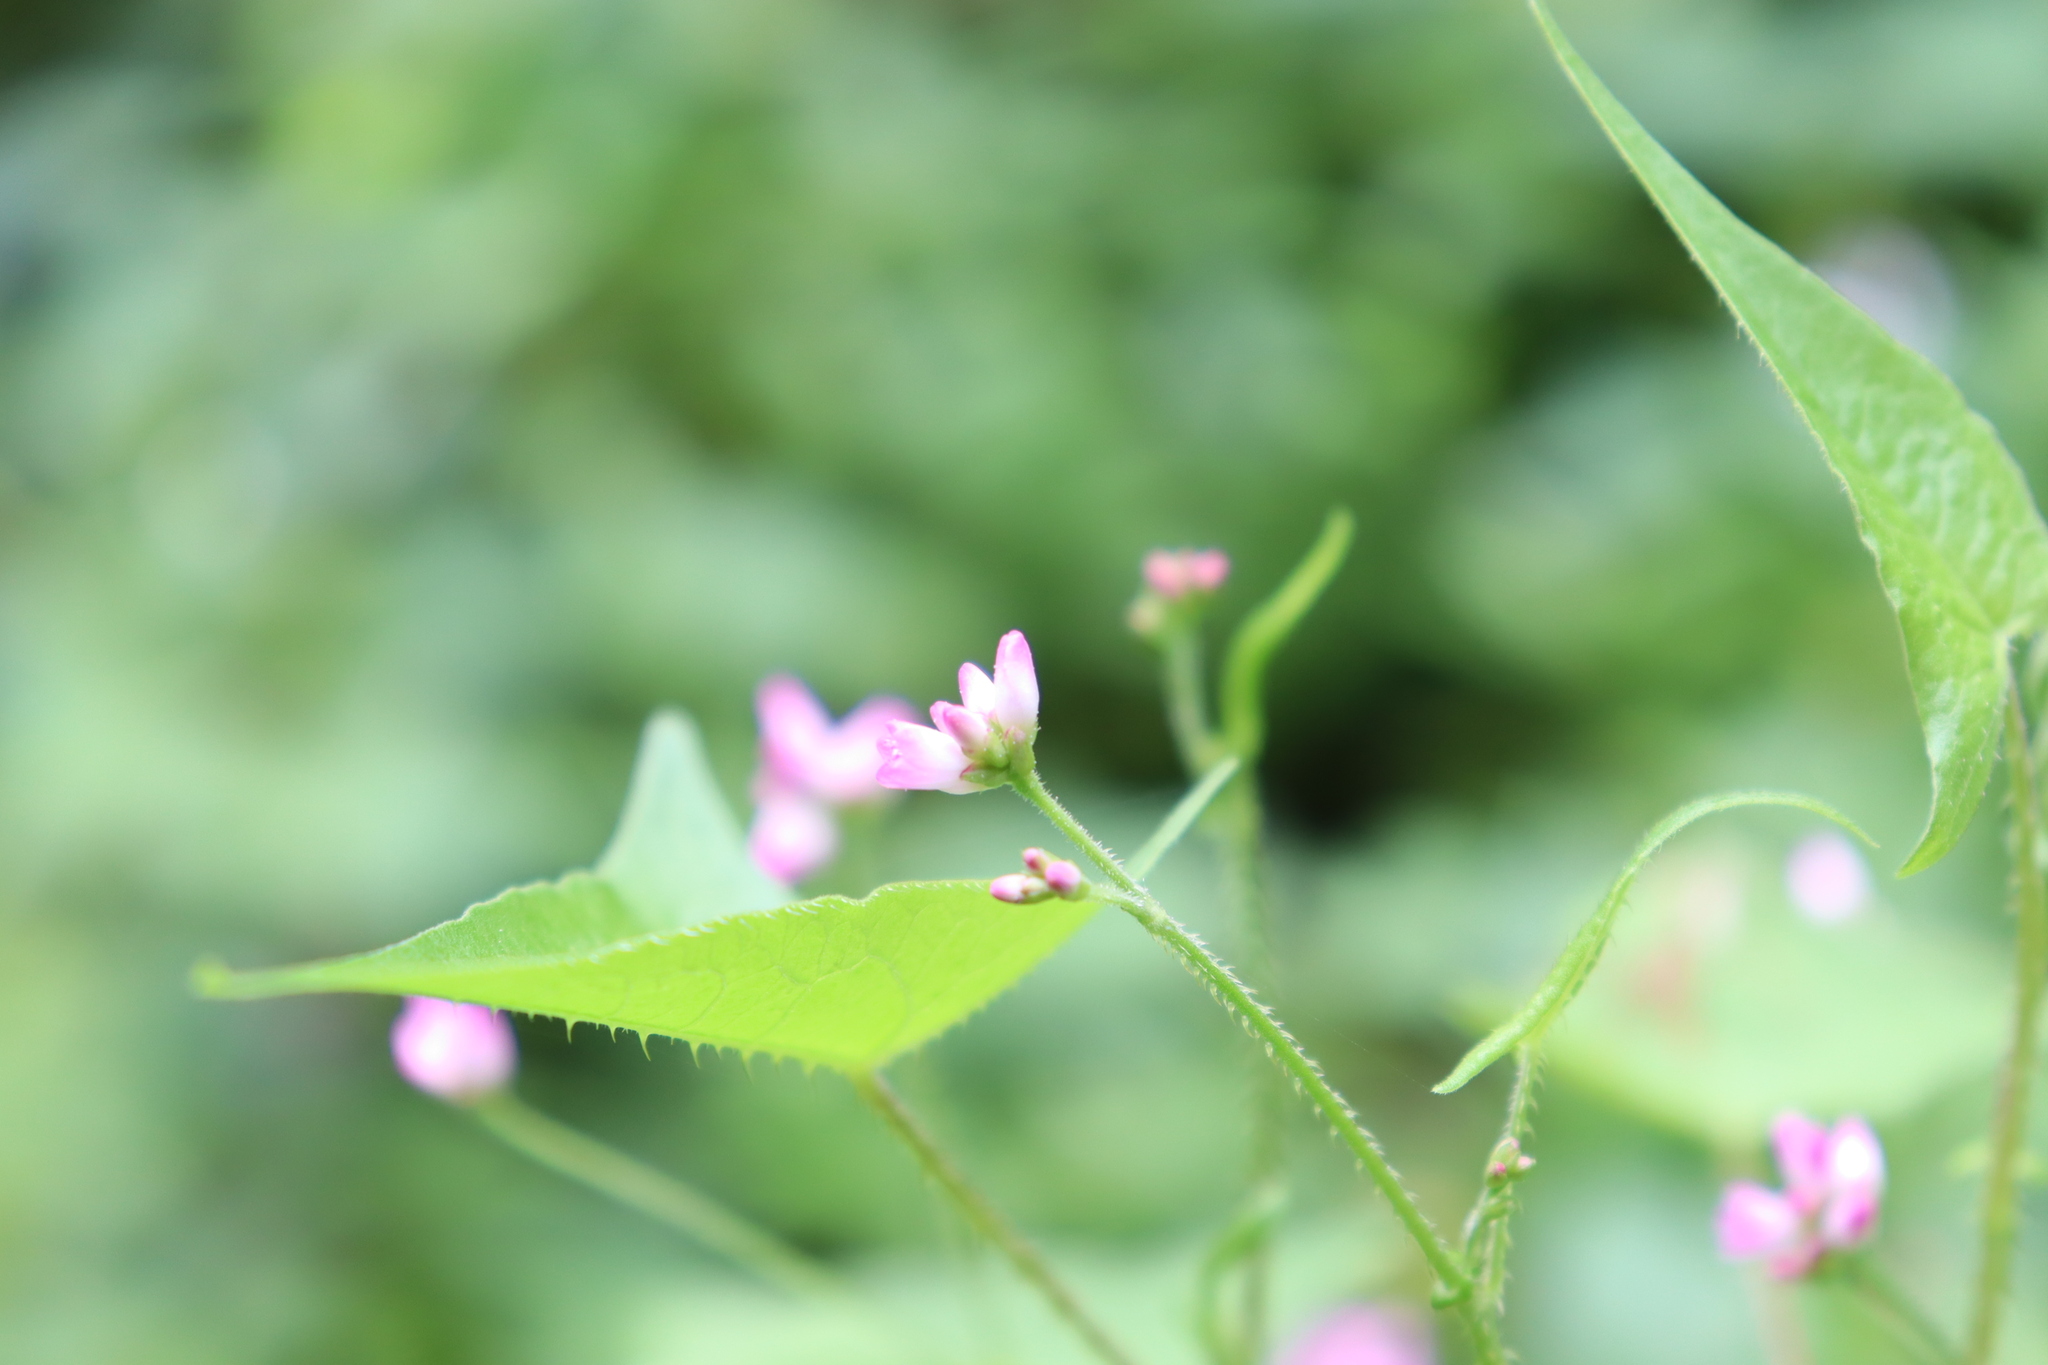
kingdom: Plantae
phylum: Tracheophyta
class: Magnoliopsida
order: Caryophyllales
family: Polygonaceae
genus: Persicaria
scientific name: Persicaria senticosa
